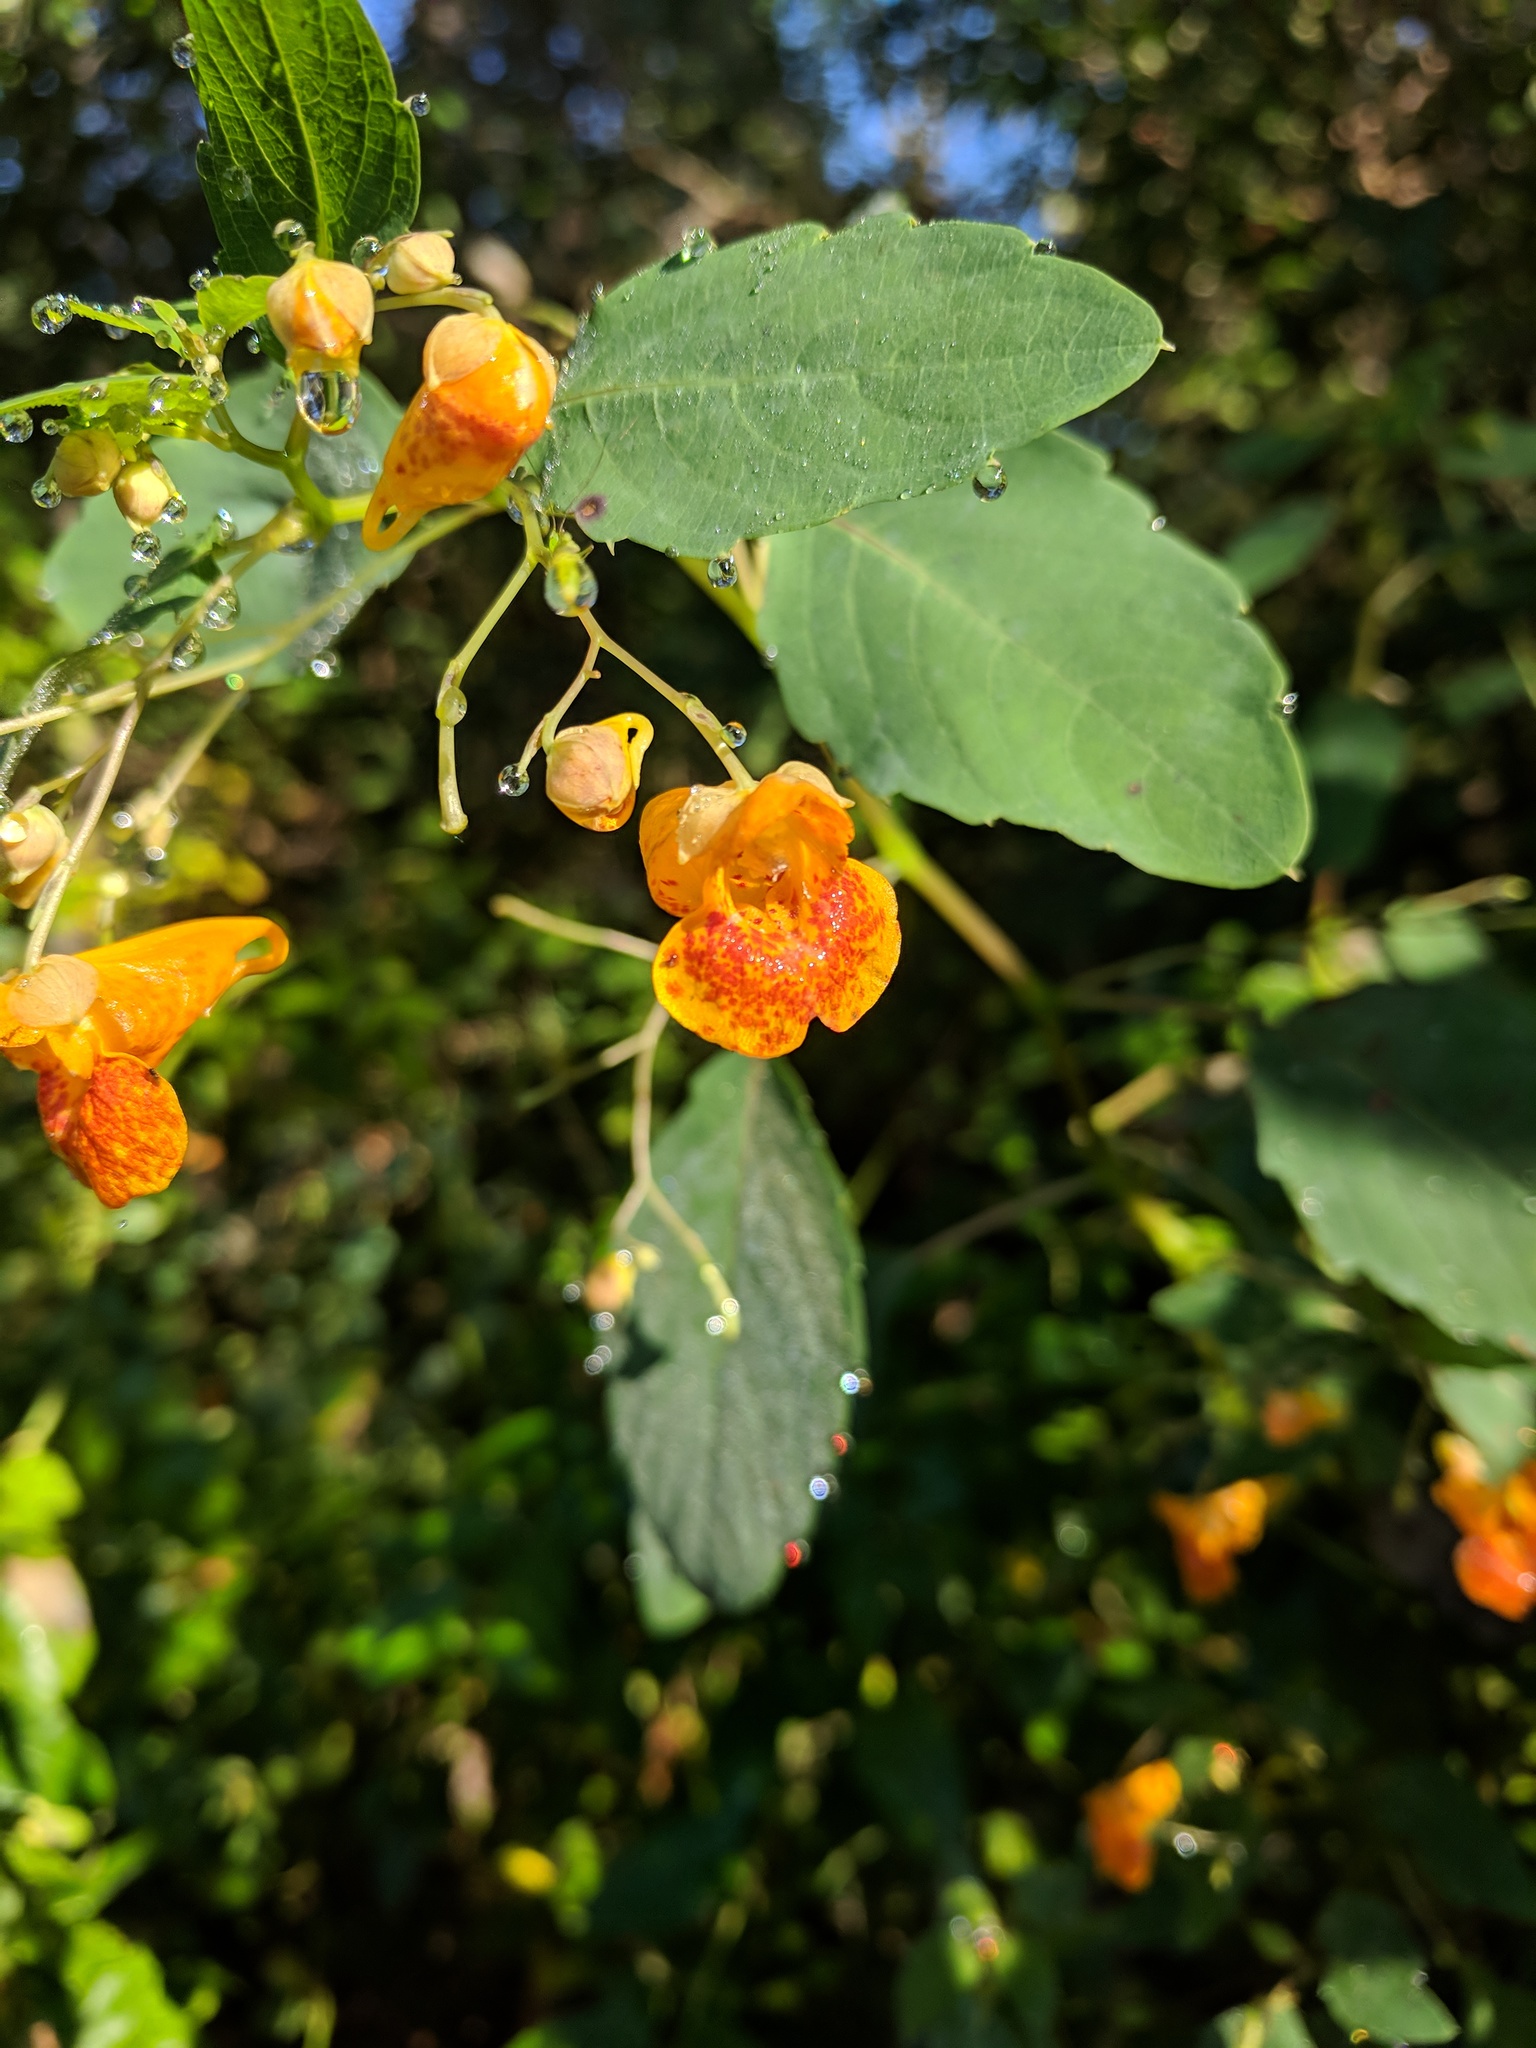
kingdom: Plantae
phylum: Tracheophyta
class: Magnoliopsida
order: Ericales
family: Balsaminaceae
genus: Impatiens
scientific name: Impatiens capensis
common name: Orange balsam
